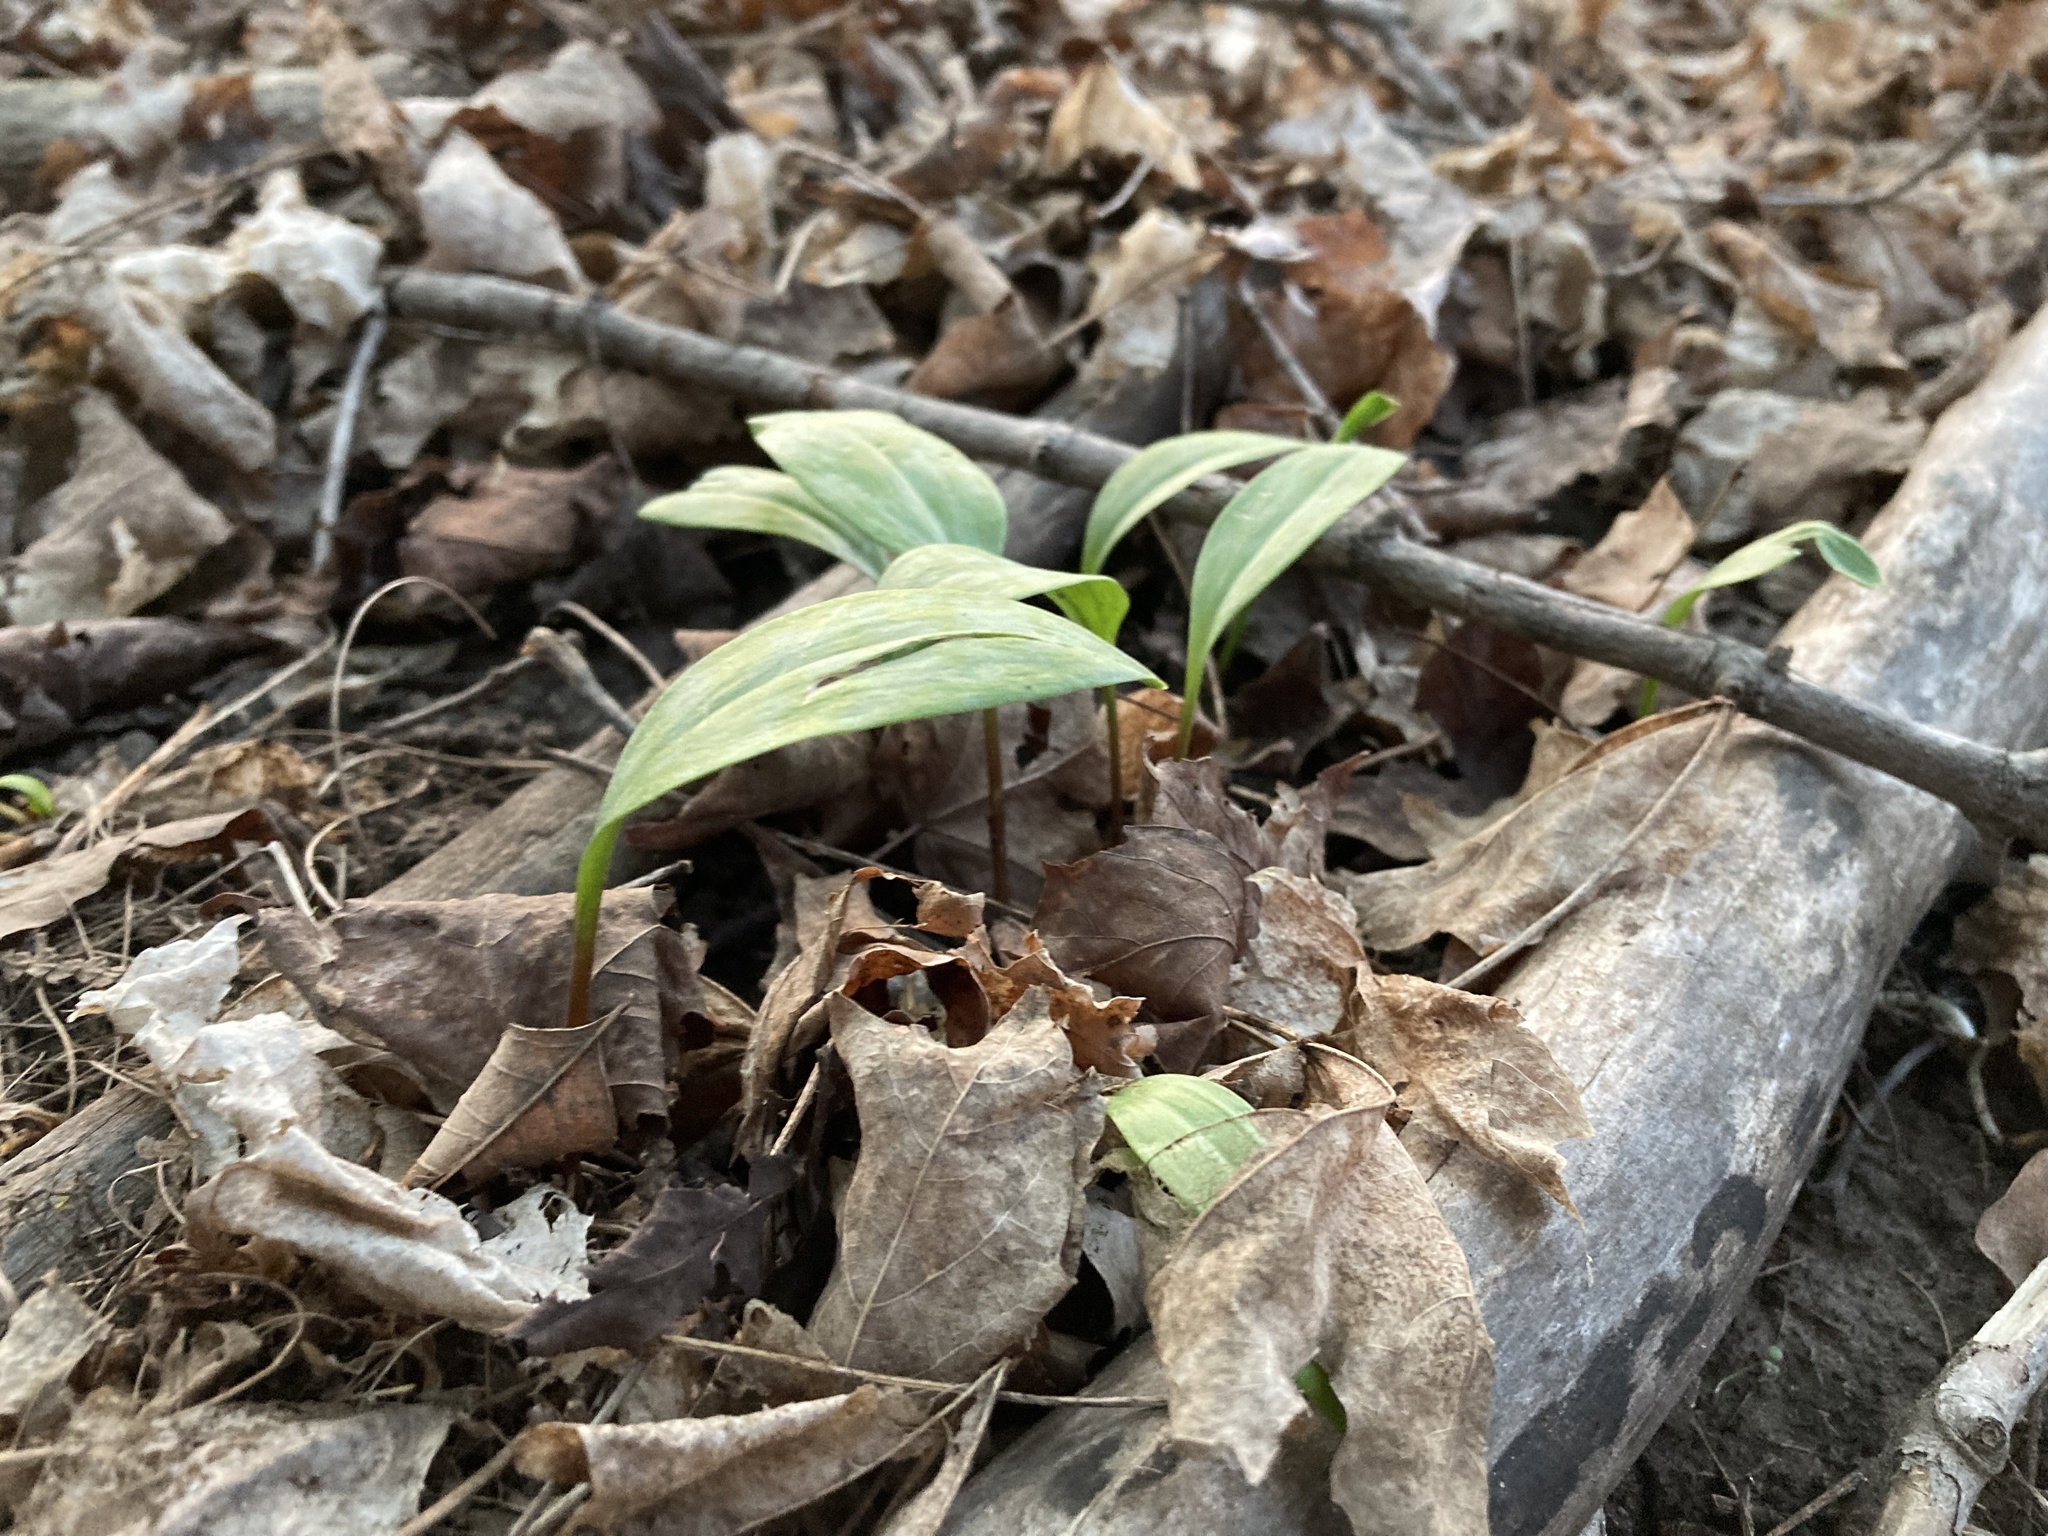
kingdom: Plantae
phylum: Tracheophyta
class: Liliopsida
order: Liliales
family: Liliaceae
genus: Erythronium
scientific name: Erythronium americanum
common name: Yellow adder's-tongue
